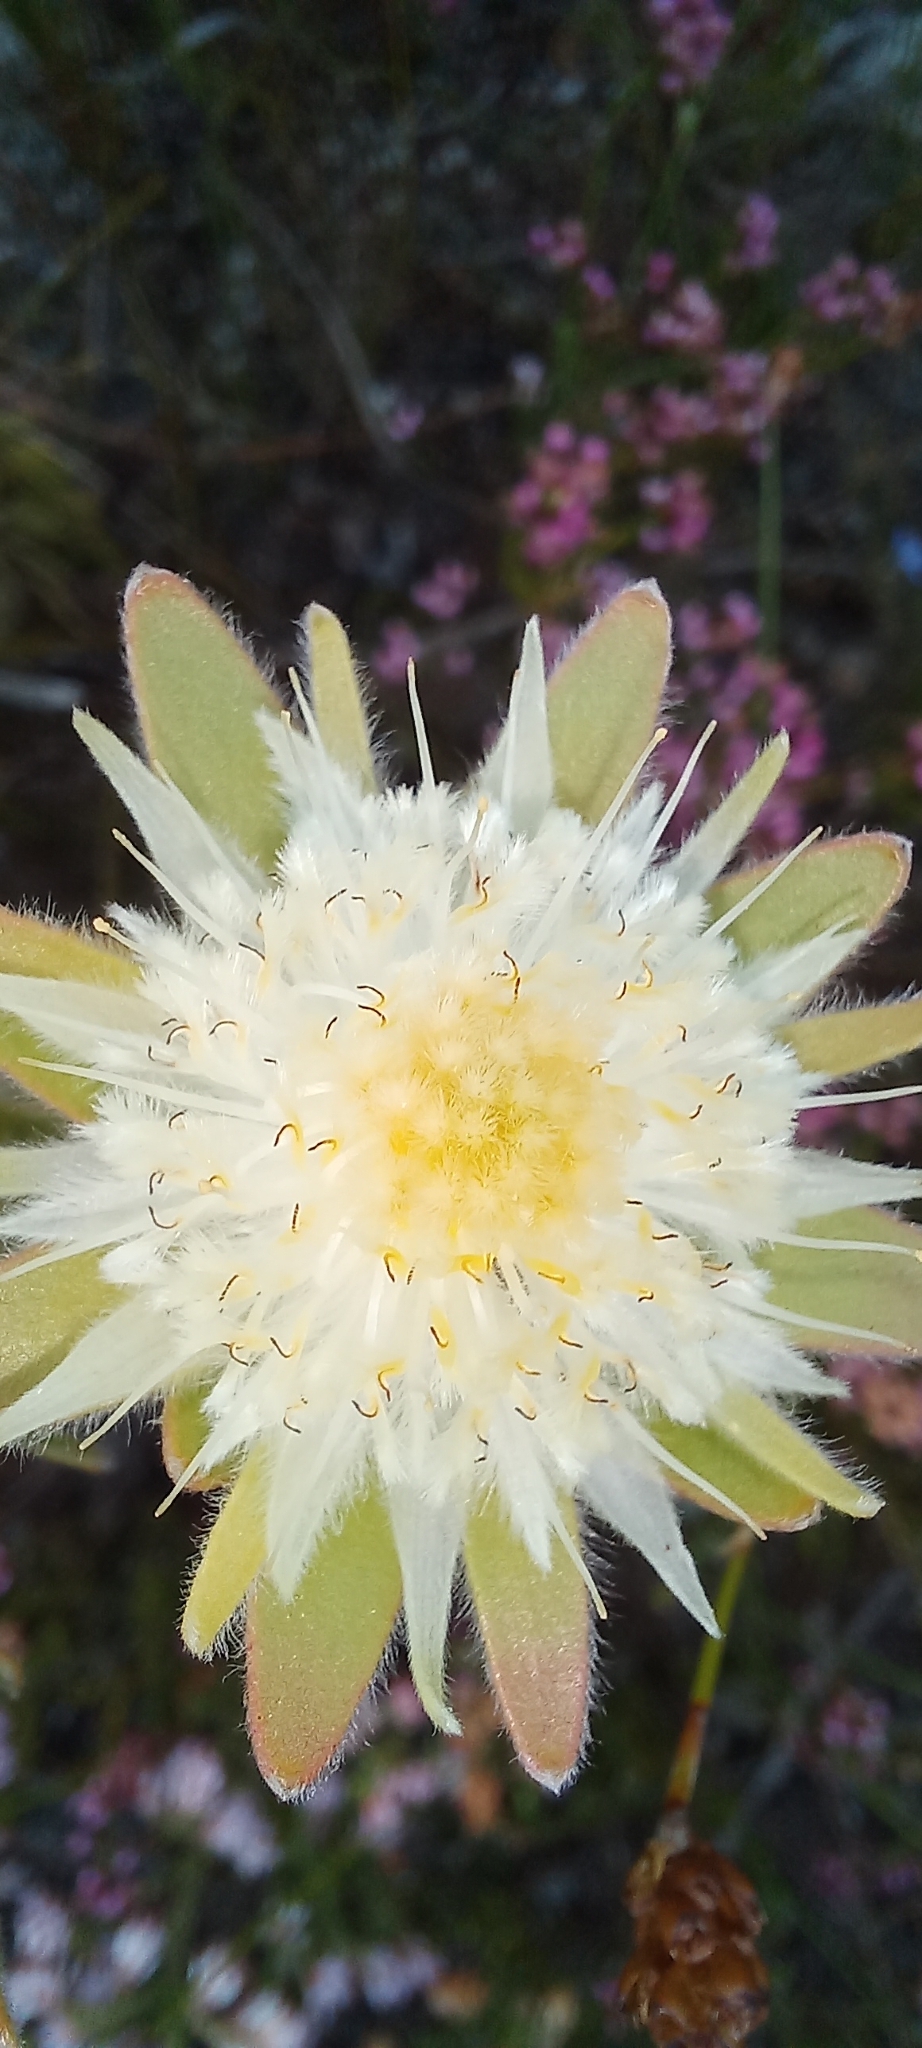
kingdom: Plantae
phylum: Tracheophyta
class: Magnoliopsida
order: Proteales
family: Proteaceae
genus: Diastella
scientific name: Diastella thymelaeoides
